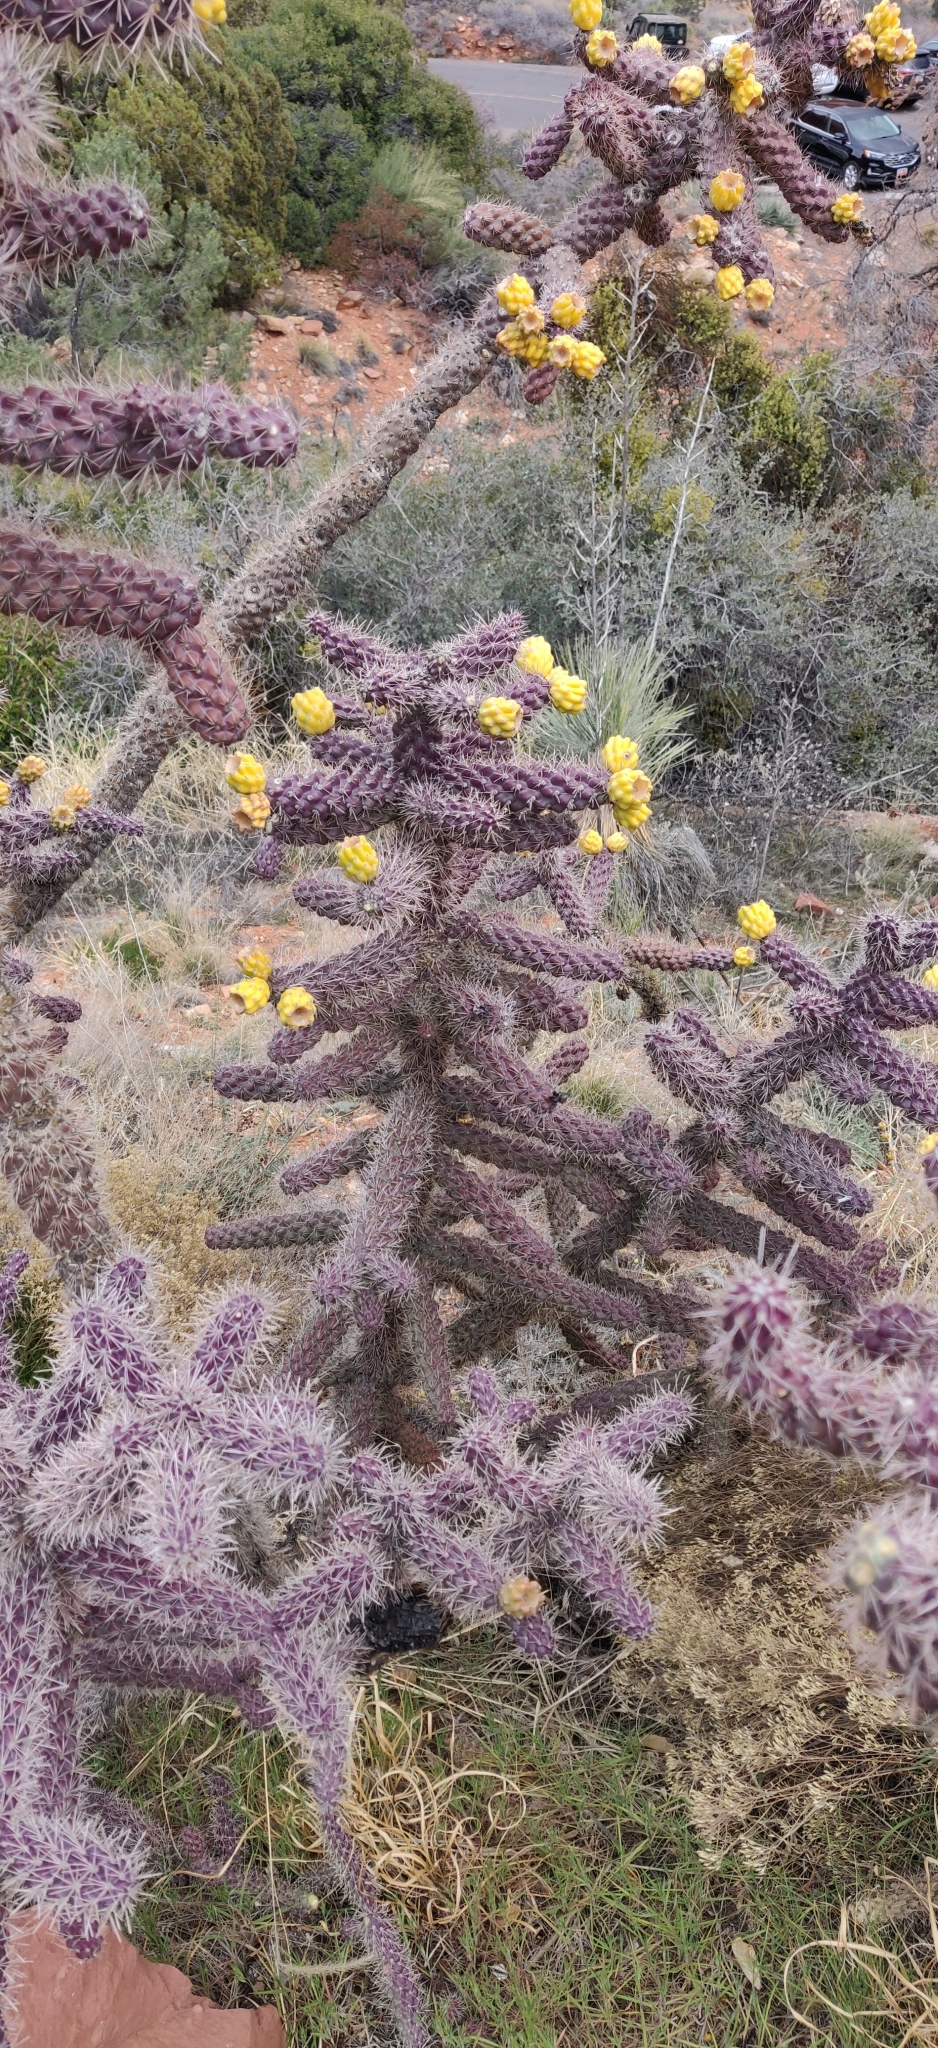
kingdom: Plantae
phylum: Tracheophyta
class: Magnoliopsida
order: Caryophyllales
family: Cactaceae
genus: Cylindropuntia
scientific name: Cylindropuntia imbricata
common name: Candelabrum cactus
